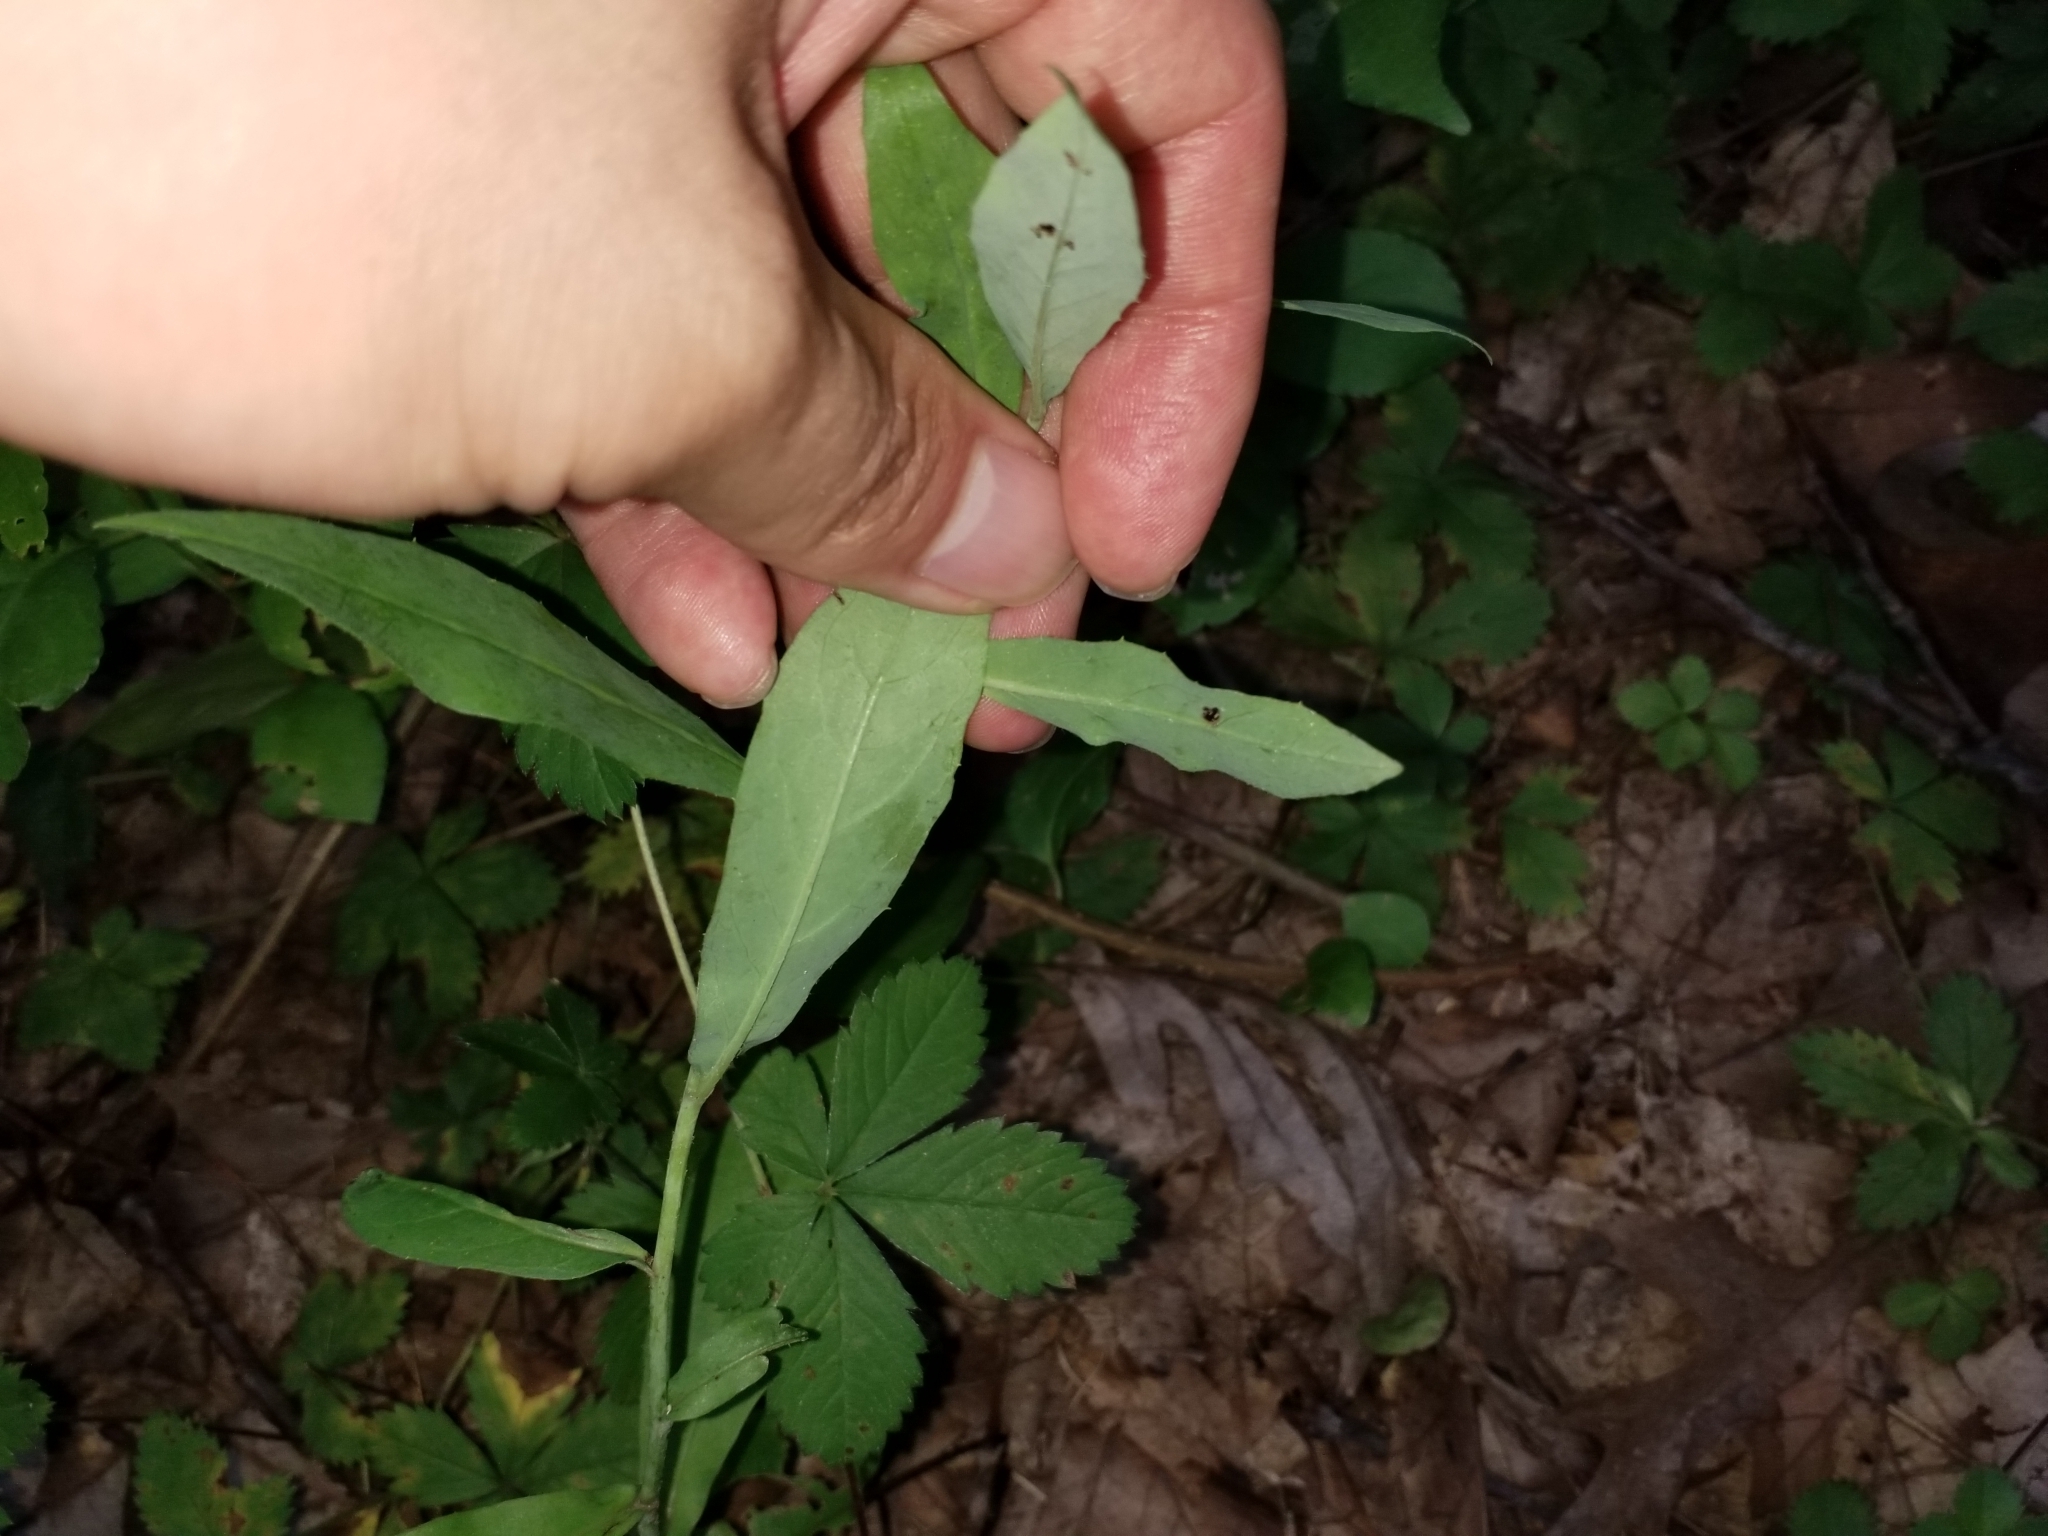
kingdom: Plantae
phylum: Tracheophyta
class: Magnoliopsida
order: Asterales
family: Asteraceae
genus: Hieracium
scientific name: Hieracium paniculatum
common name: Allegheny hawkweed
